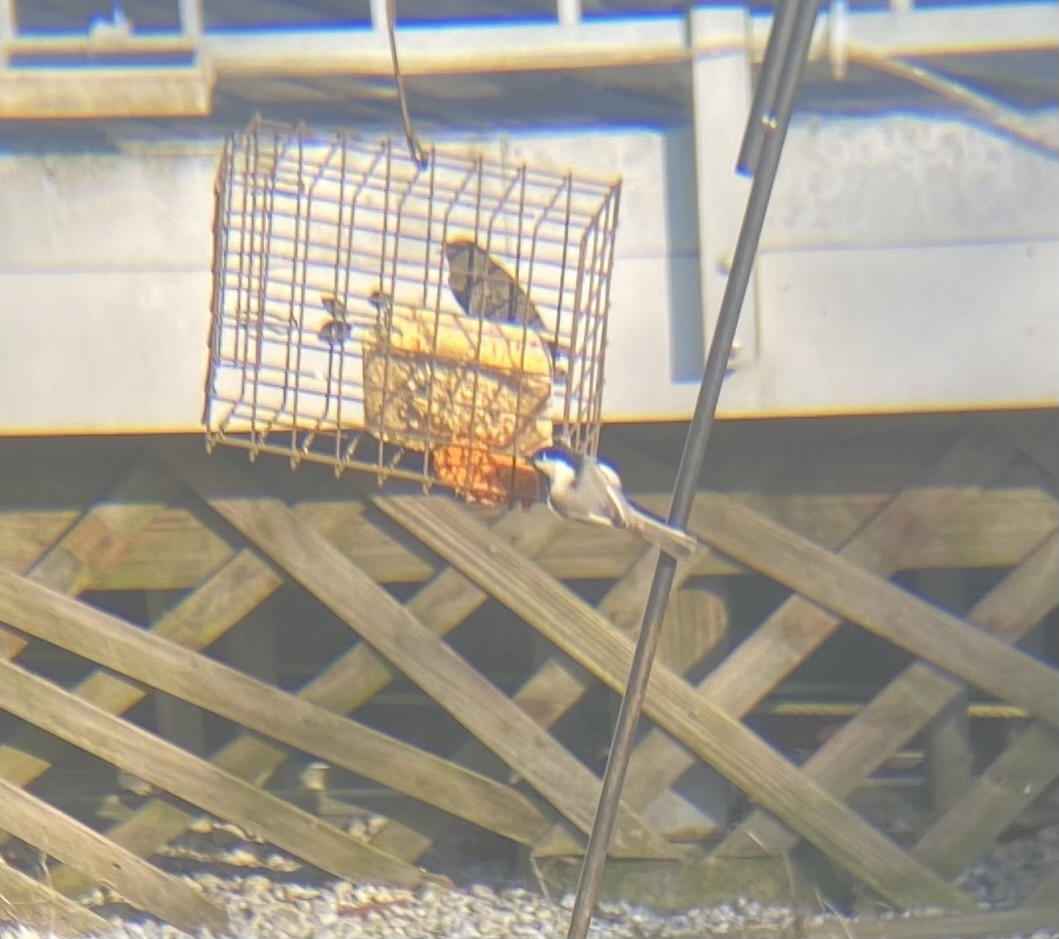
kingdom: Animalia
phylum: Chordata
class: Aves
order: Passeriformes
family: Paridae
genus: Poecile
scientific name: Poecile atricapillus
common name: Black-capped chickadee
